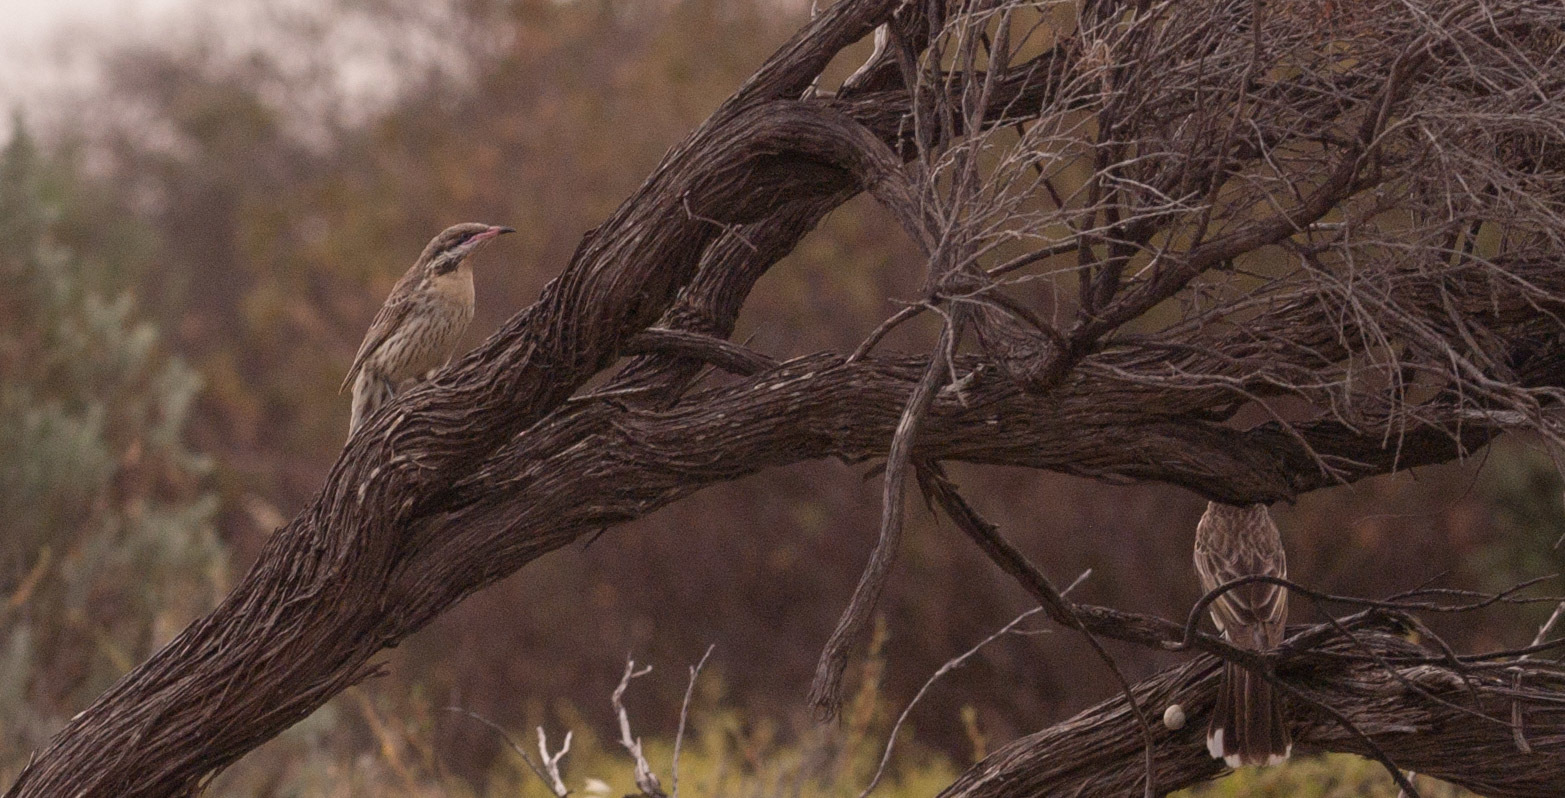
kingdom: Animalia
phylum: Chordata
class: Aves
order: Passeriformes
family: Meliphagidae
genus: Acanthagenys
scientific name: Acanthagenys rufogularis
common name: Spiny-cheeked honeyeater
